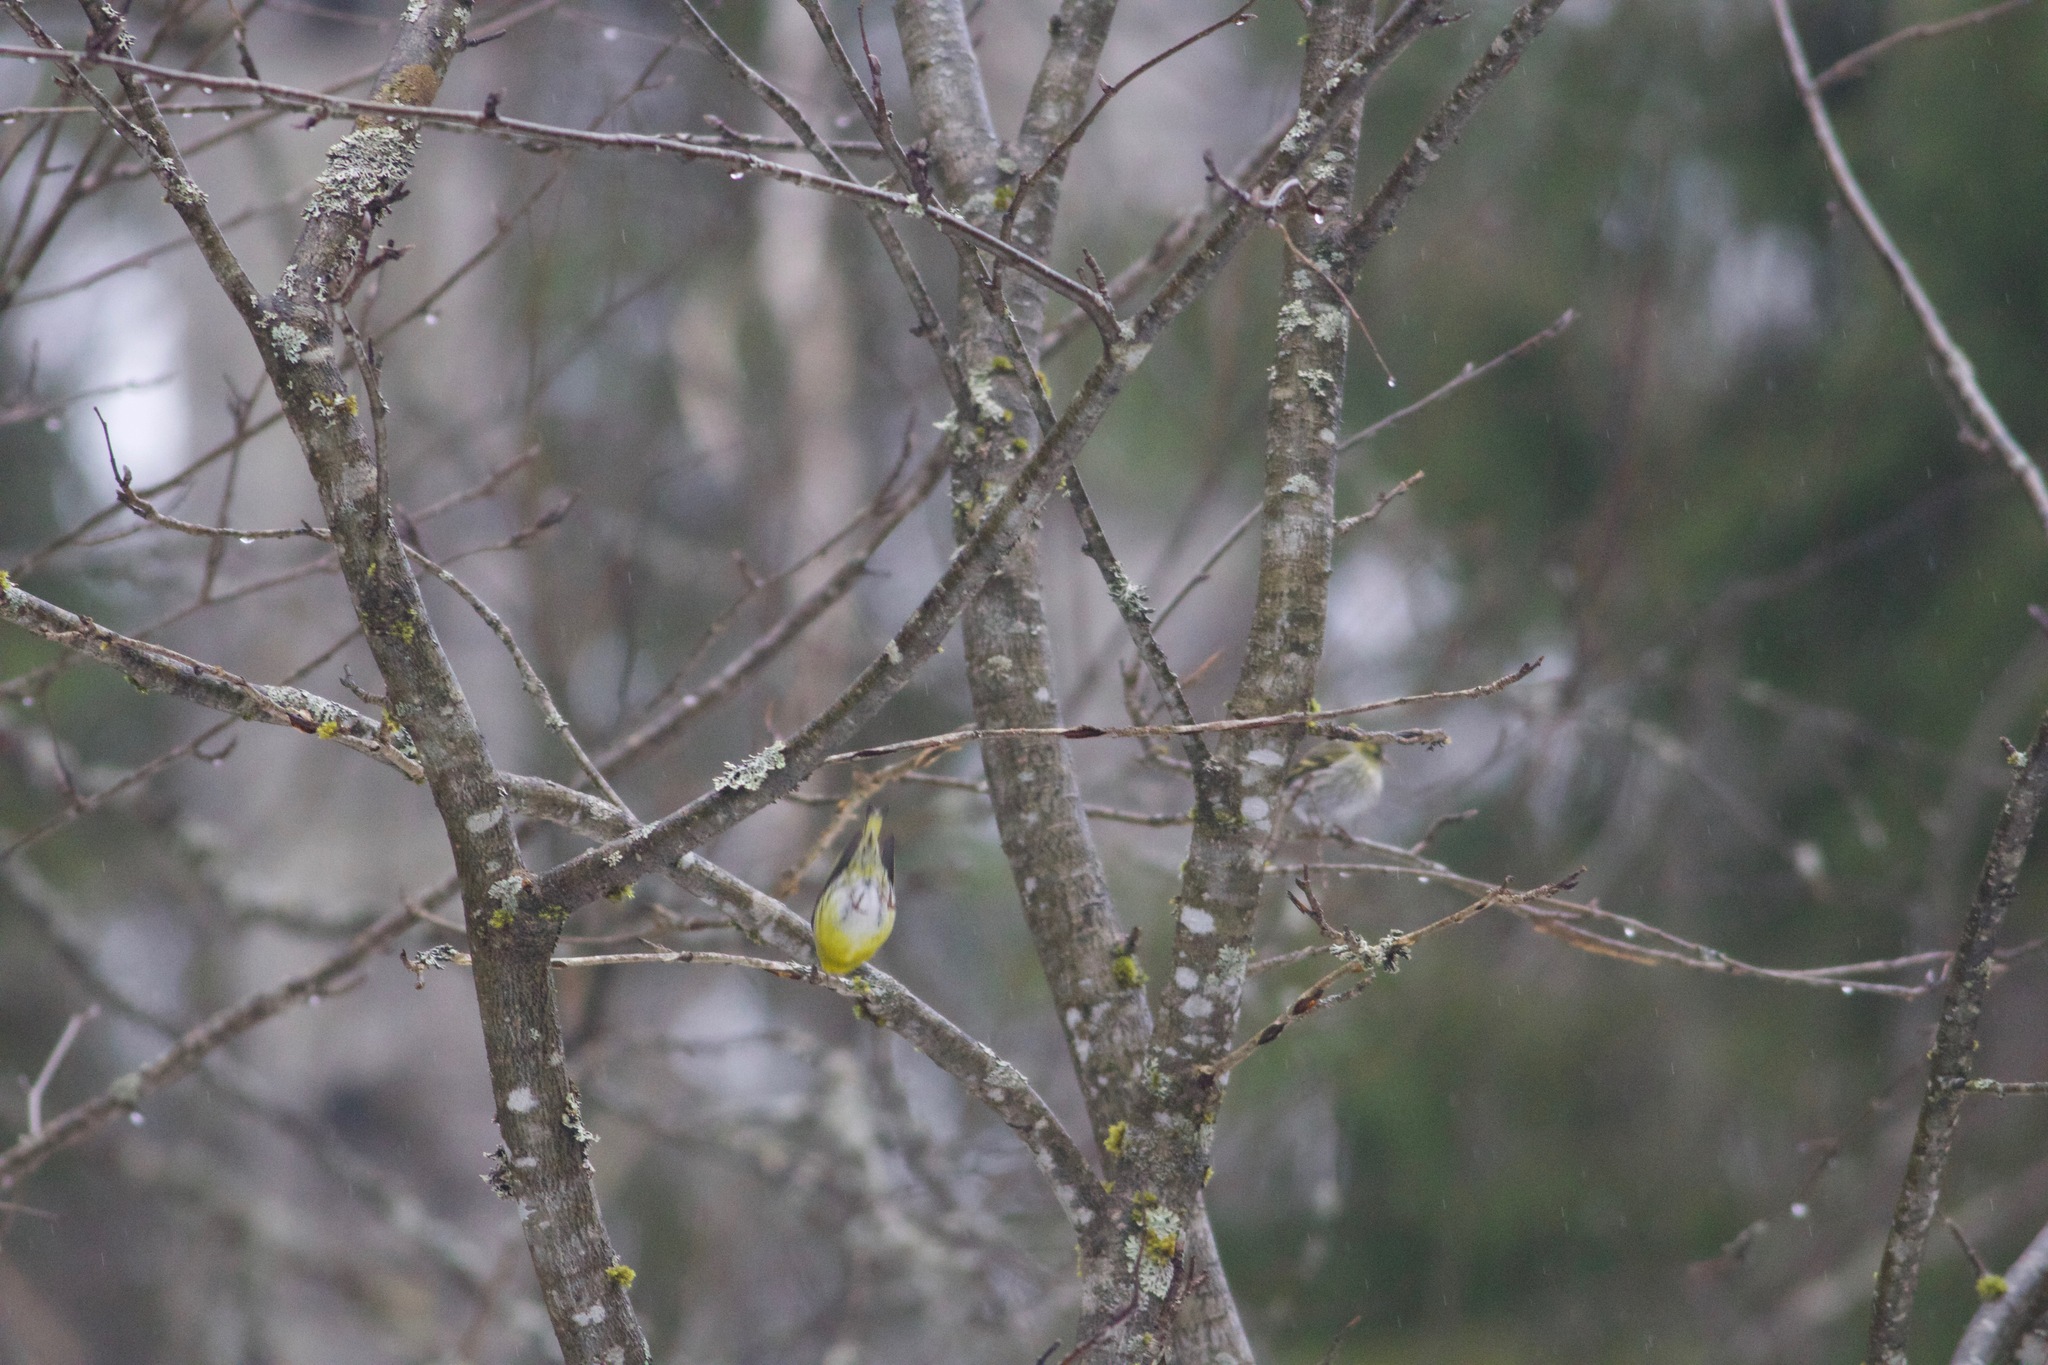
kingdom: Animalia
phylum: Chordata
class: Aves
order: Passeriformes
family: Fringillidae
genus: Spinus
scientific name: Spinus spinus
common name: Eurasian siskin
